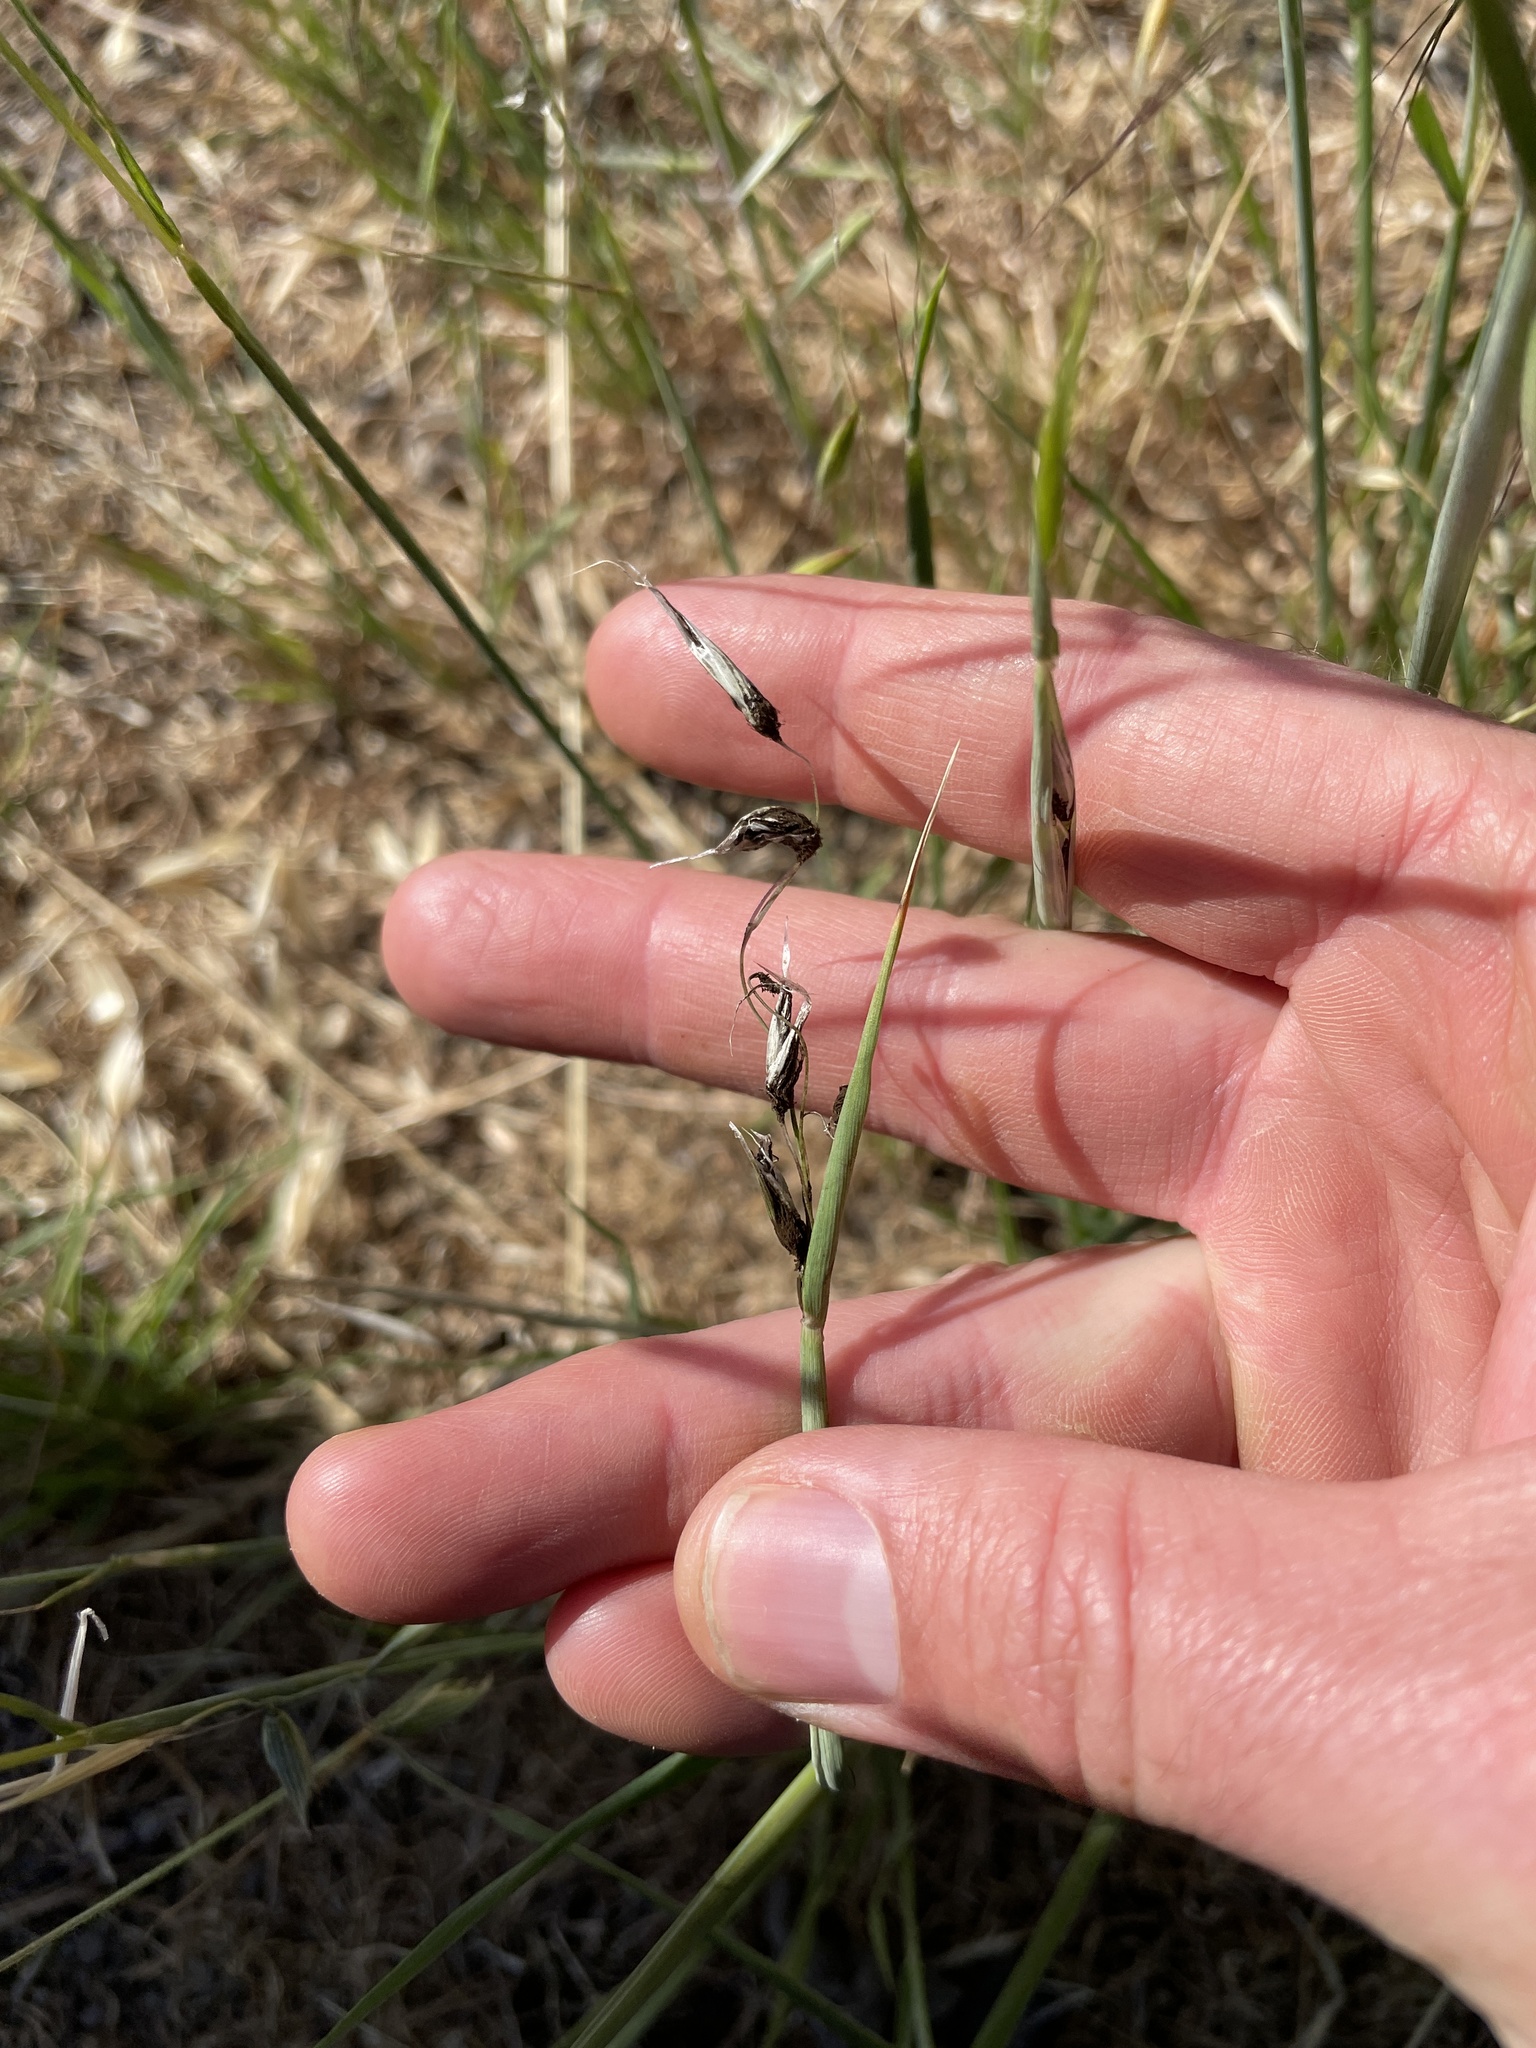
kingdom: Fungi
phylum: Basidiomycota
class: Ustilaginomycetes
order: Ustilaginales
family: Ustilaginaceae
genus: Ustilago
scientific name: Ustilago avenae
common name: Loose smut of oats & oat grass
